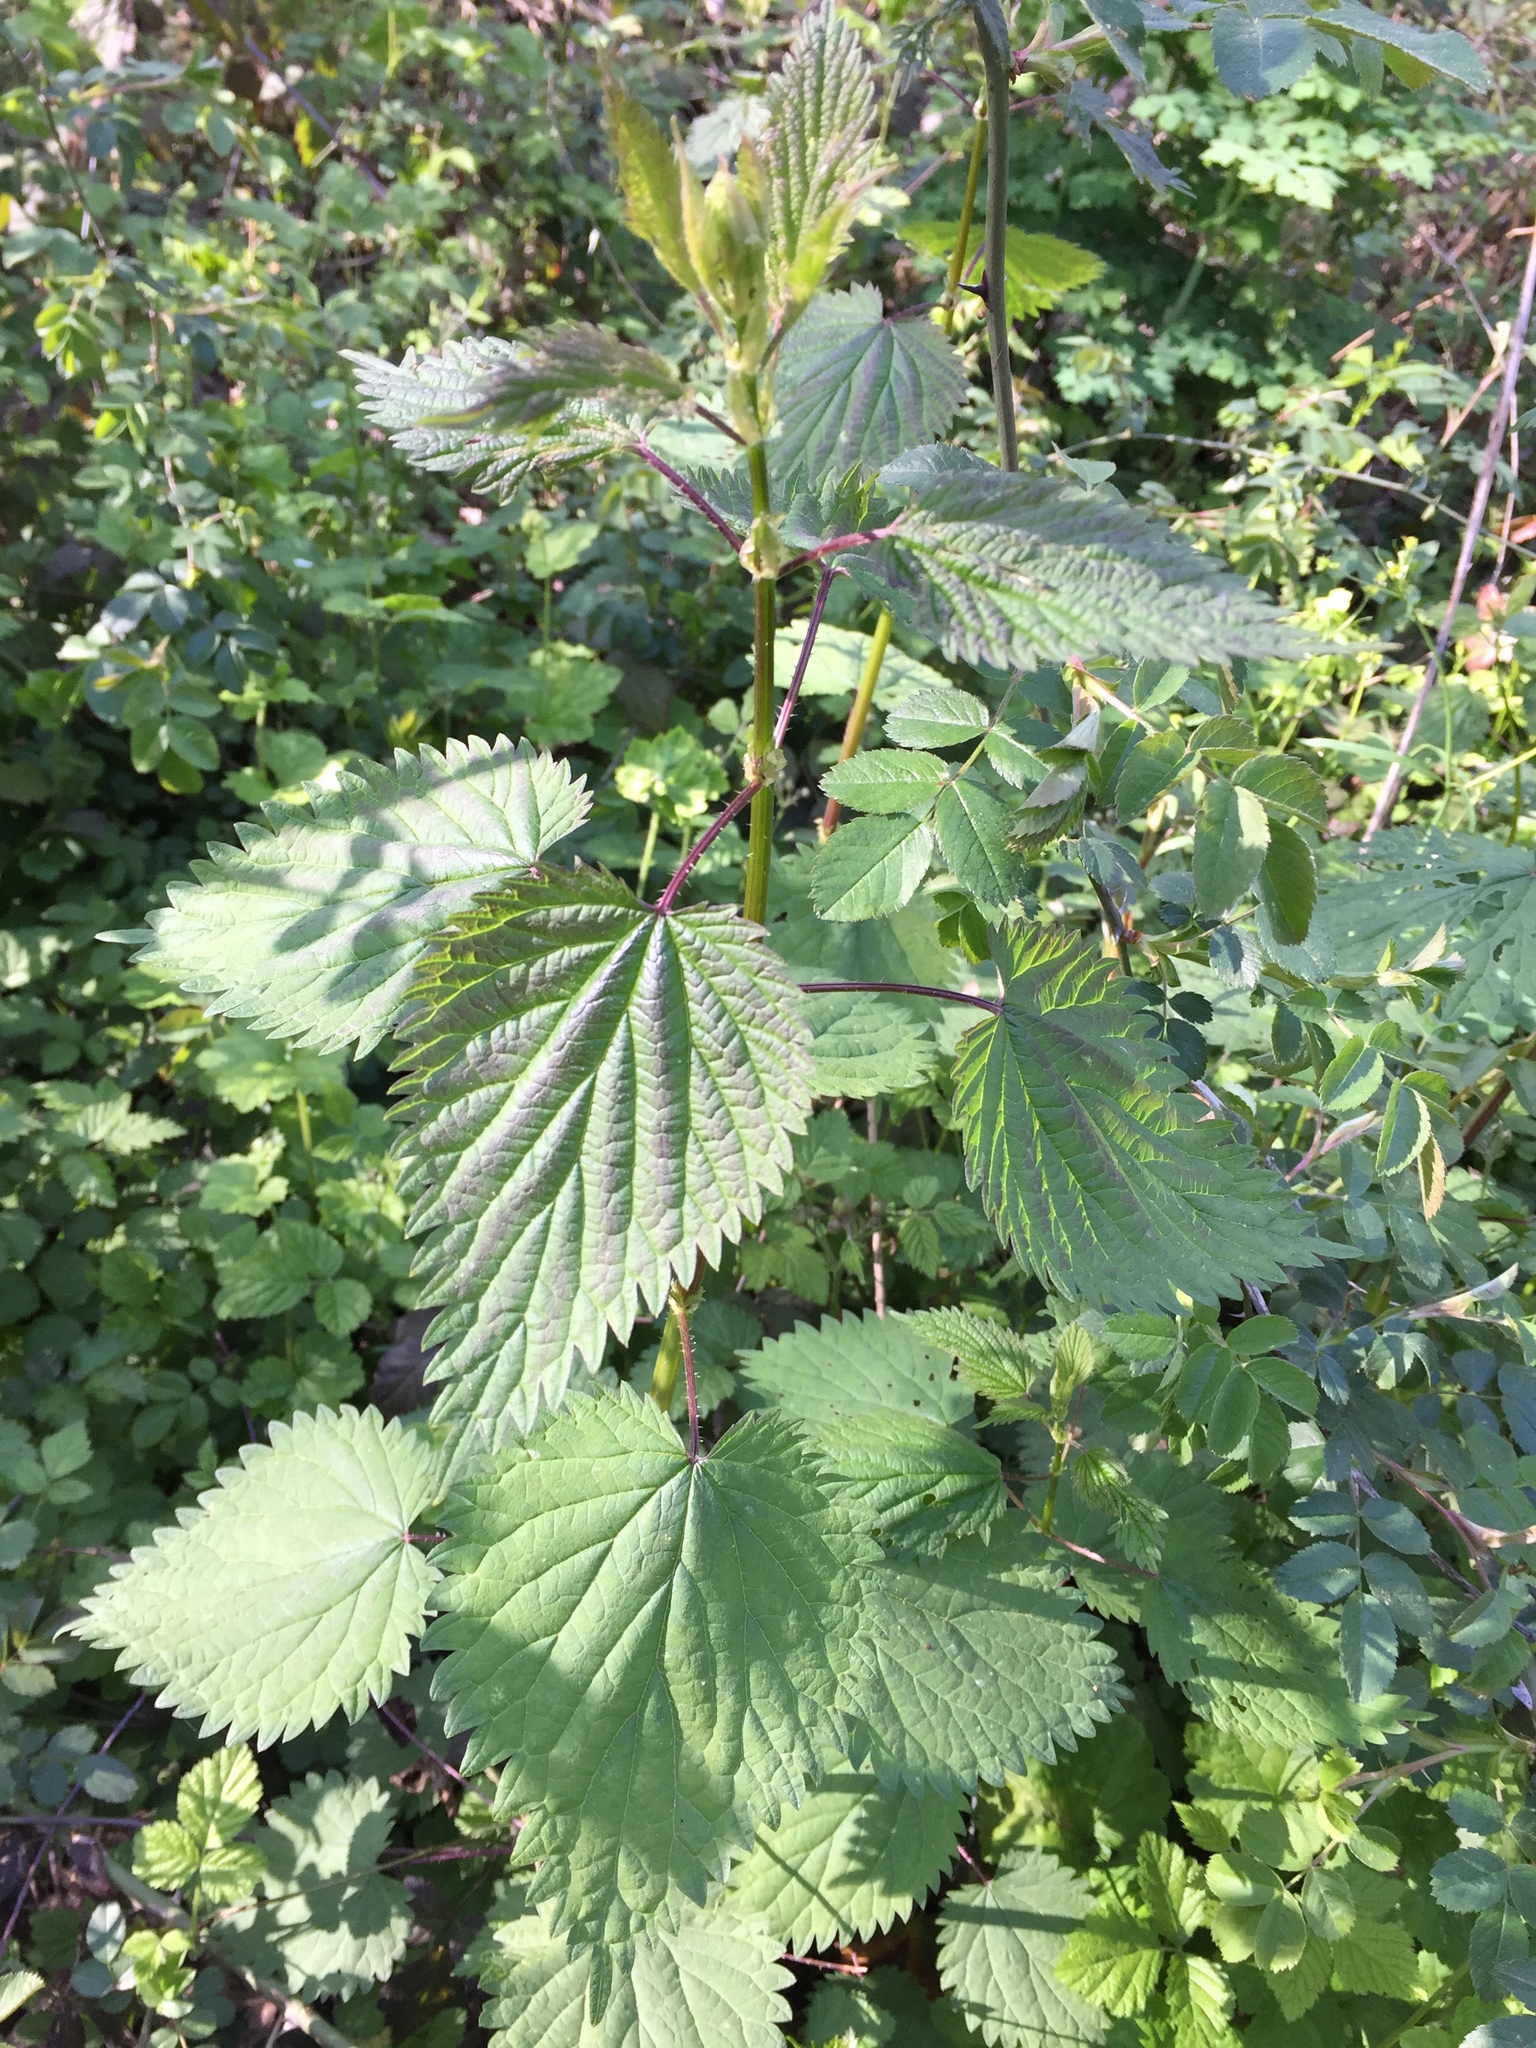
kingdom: Plantae
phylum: Tracheophyta
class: Magnoliopsida
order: Rosales
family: Urticaceae
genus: Urtica
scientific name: Urtica dioica
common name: Common nettle
